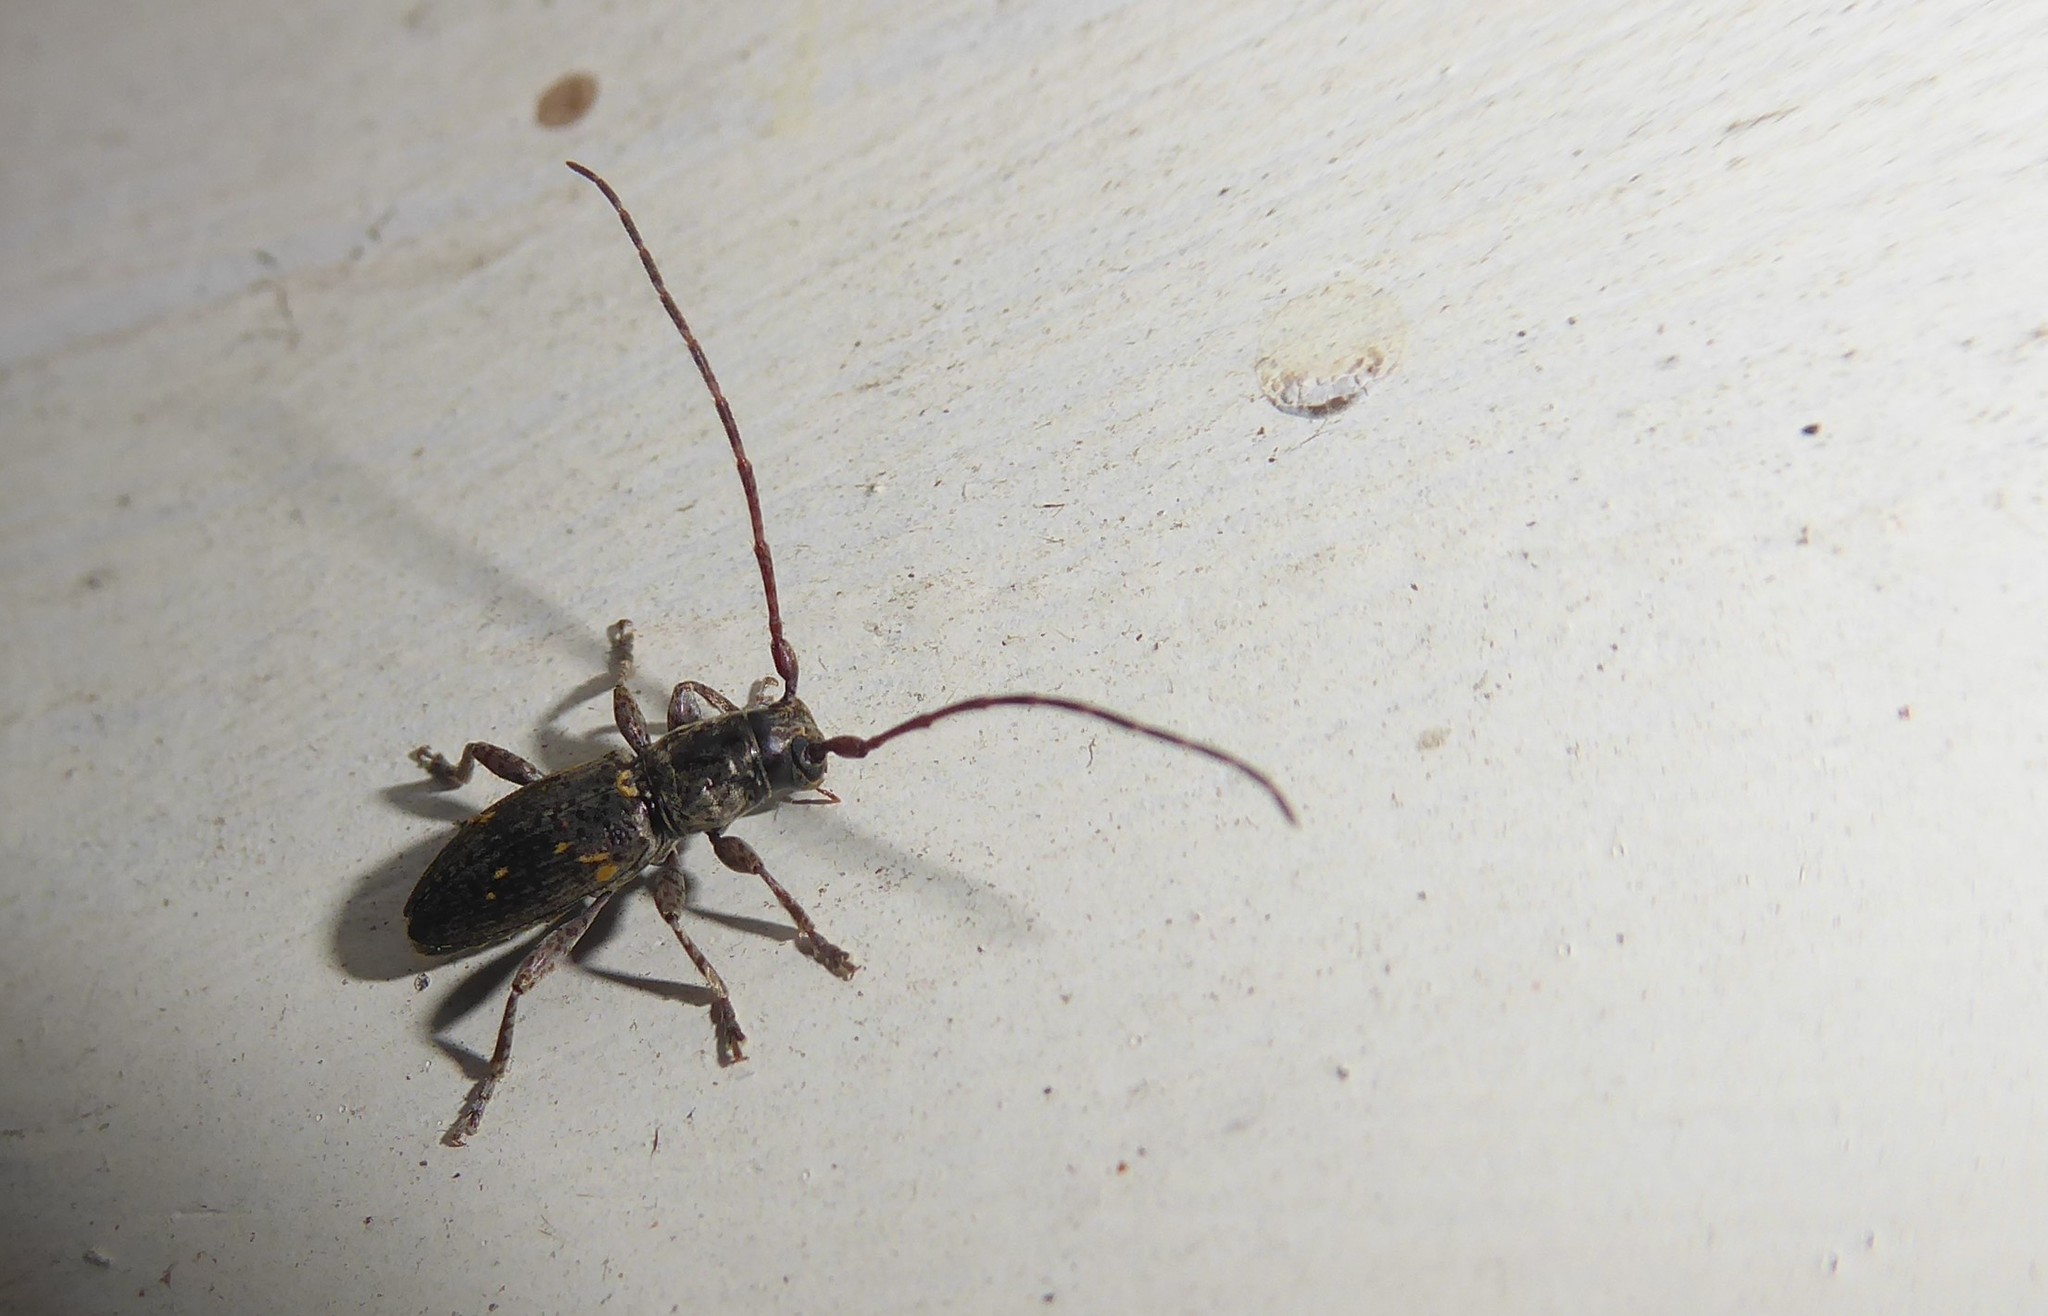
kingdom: Animalia
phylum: Arthropoda
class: Insecta
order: Coleoptera
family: Cerambycidae
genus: Xylotoles
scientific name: Xylotoles griseus
